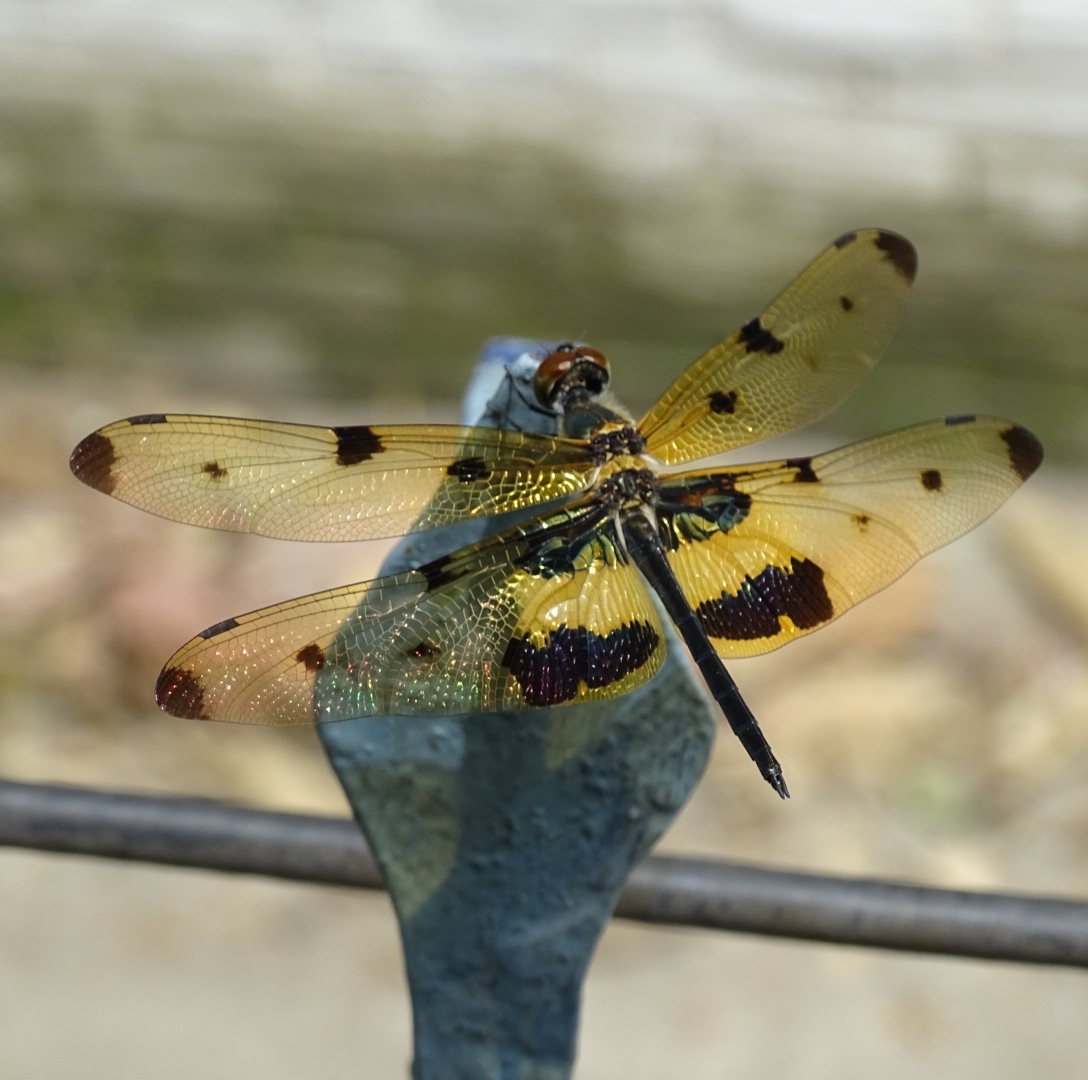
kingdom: Animalia
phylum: Arthropoda
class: Insecta
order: Odonata
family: Libellulidae
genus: Rhyothemis
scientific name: Rhyothemis variegata
